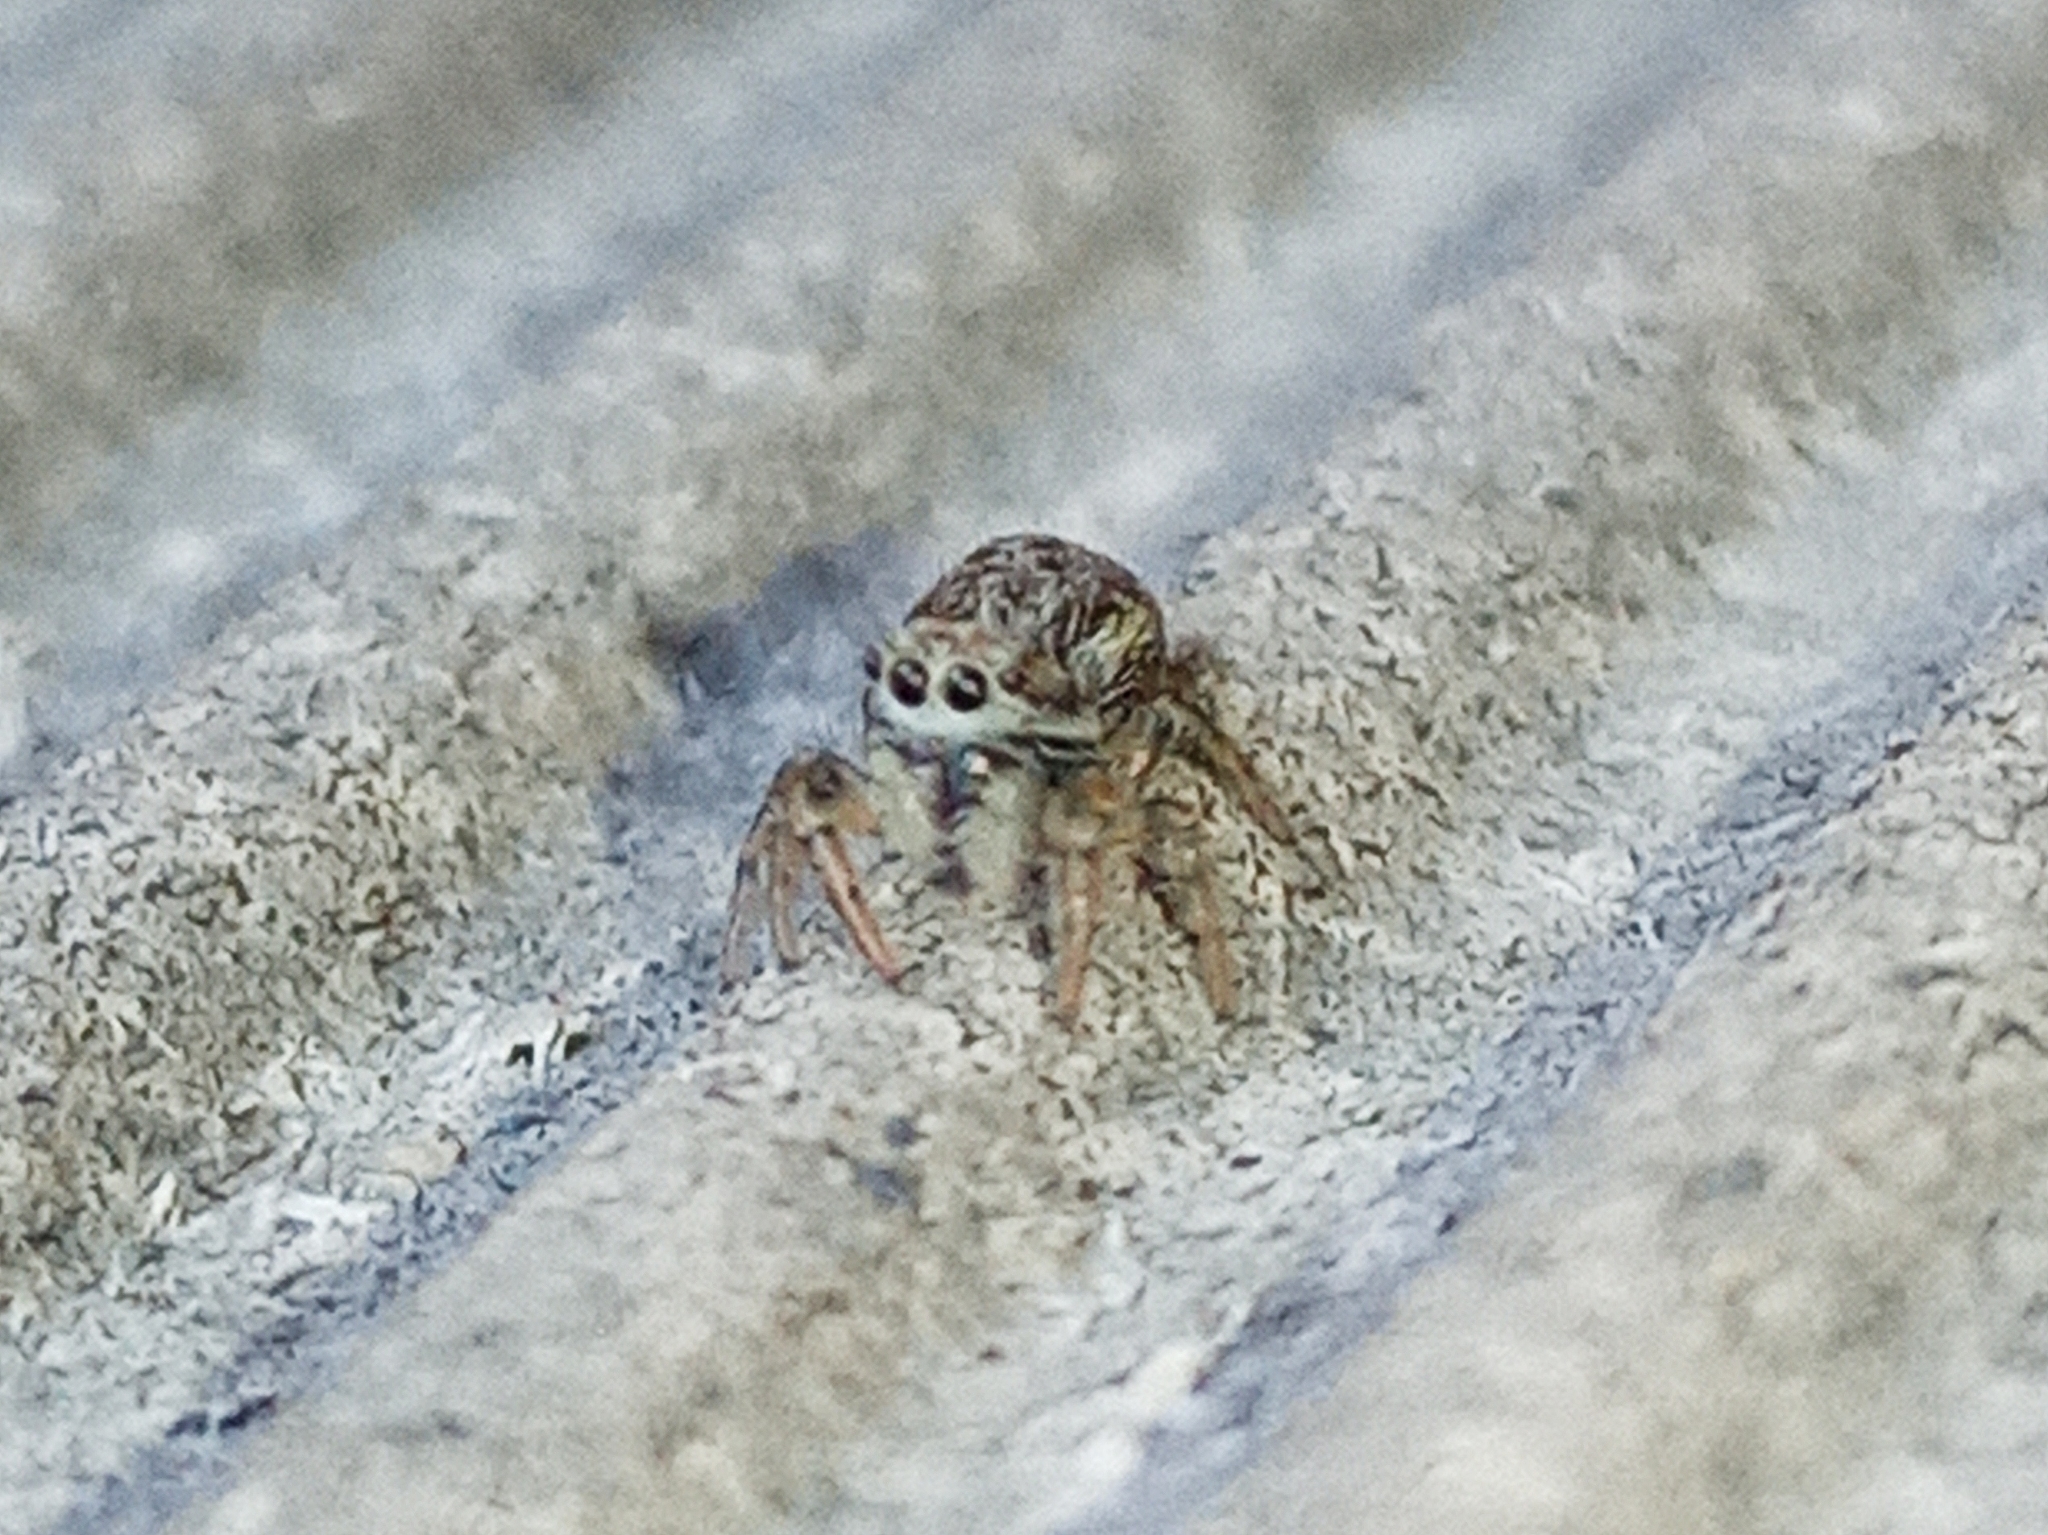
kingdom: Animalia
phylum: Arthropoda
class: Arachnida
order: Araneae
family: Salticidae
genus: Pseudicius
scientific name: Pseudicius encarpatus
